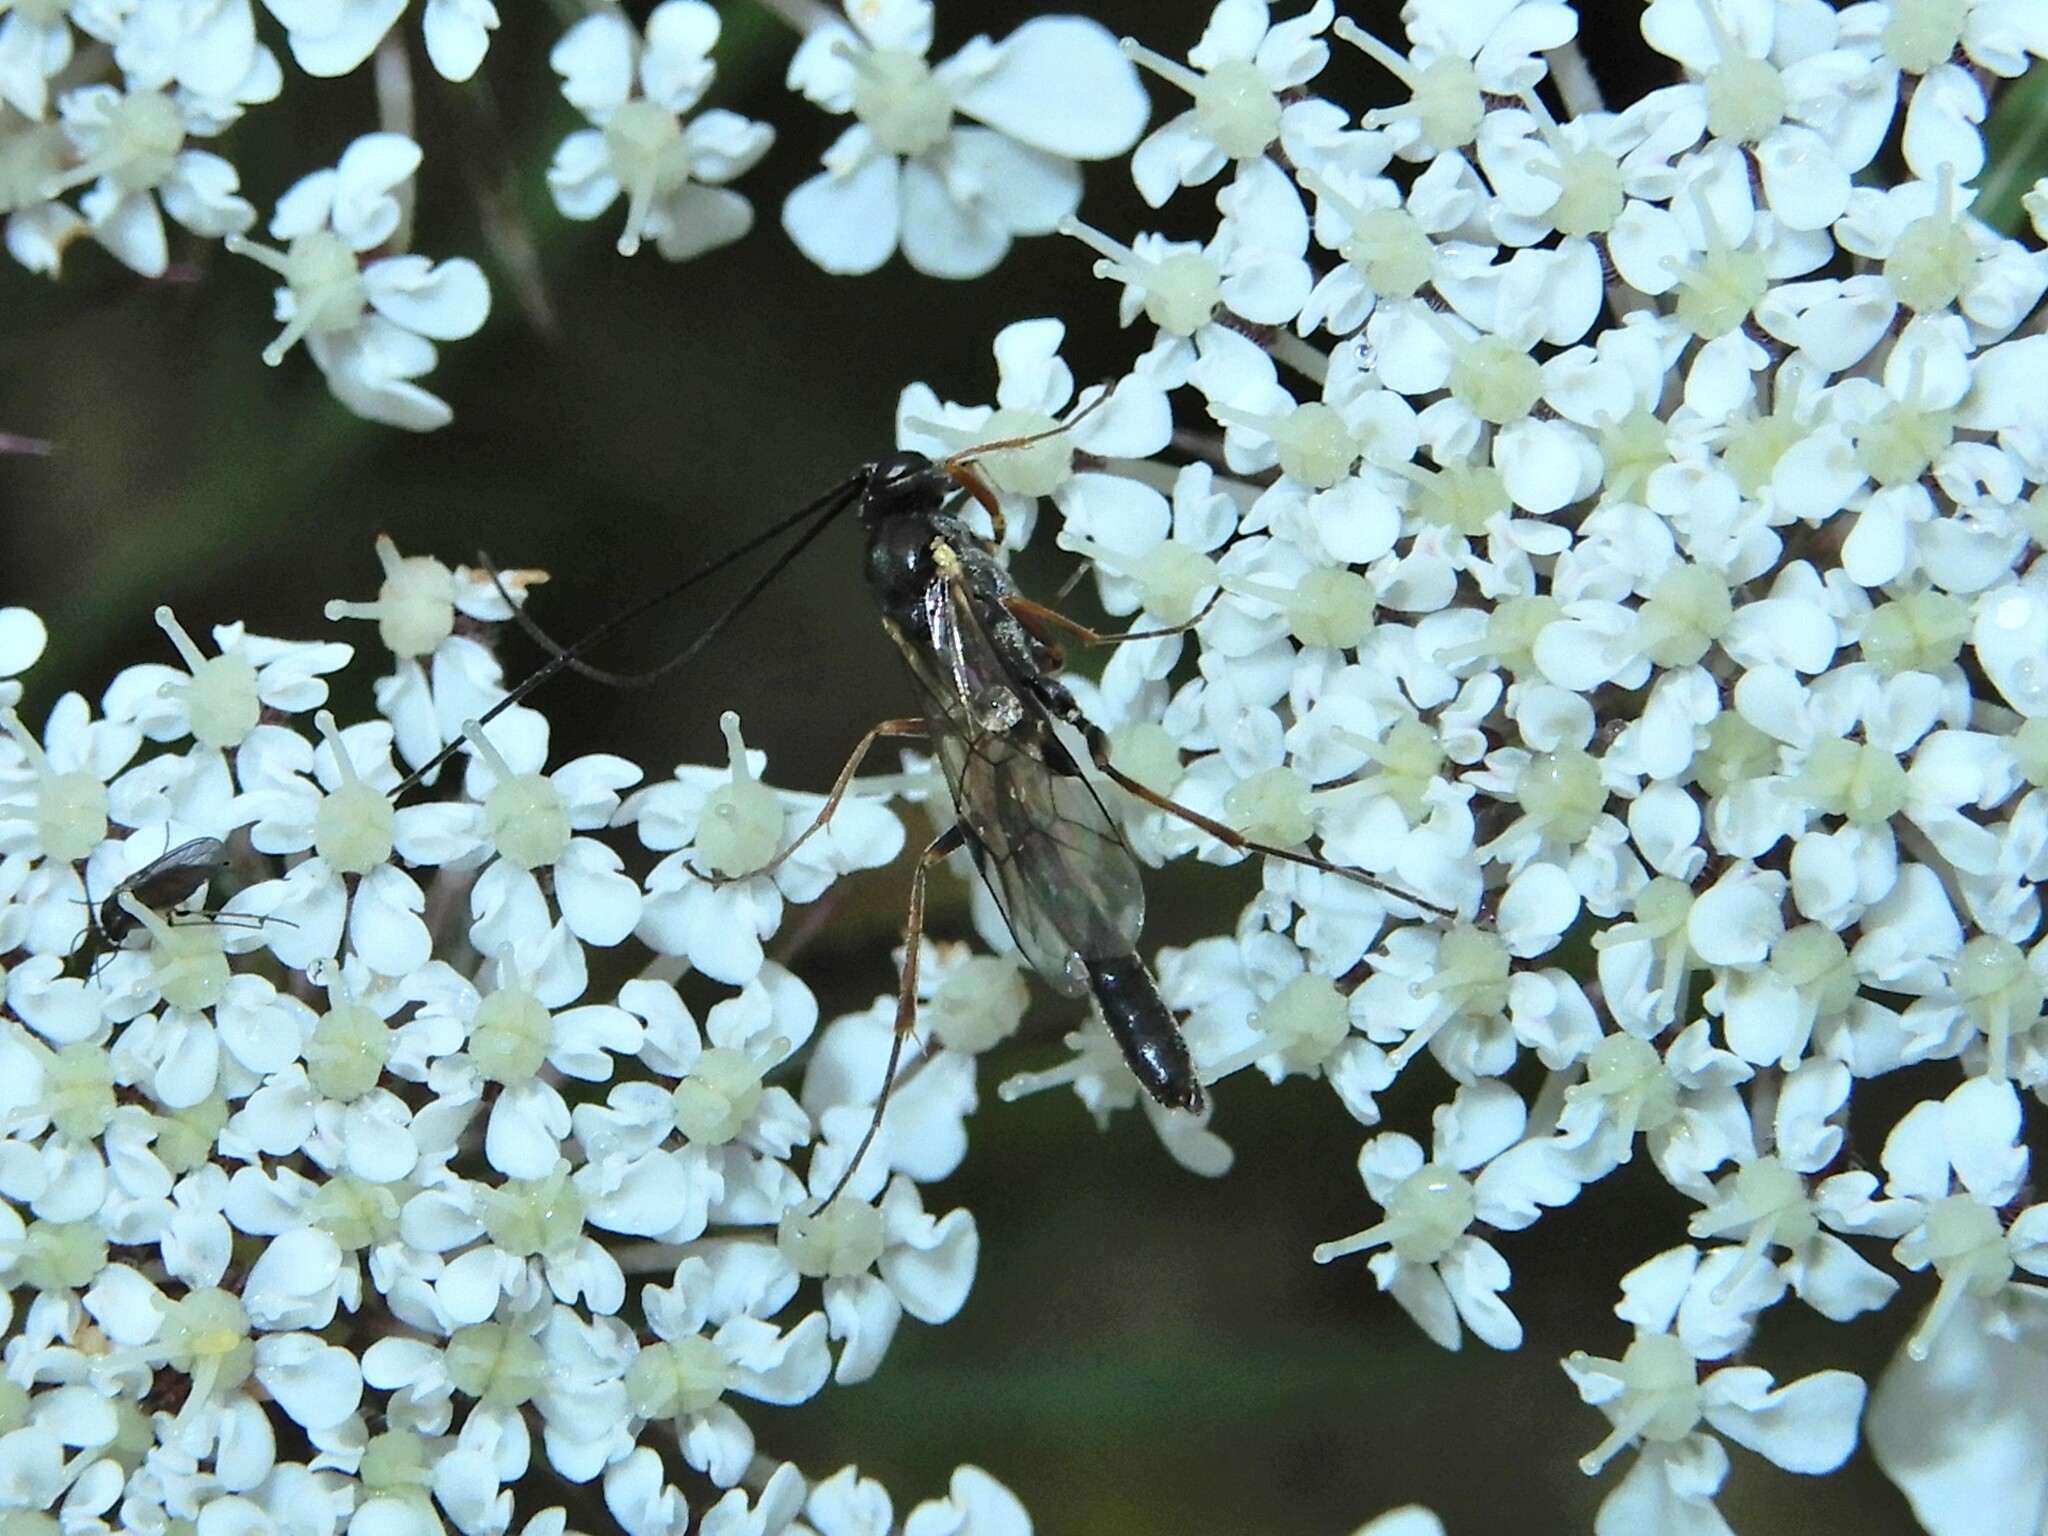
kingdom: Animalia
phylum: Arthropoda
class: Insecta
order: Hymenoptera
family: Ichneumonidae
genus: Trathala
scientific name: Trathala agnina
